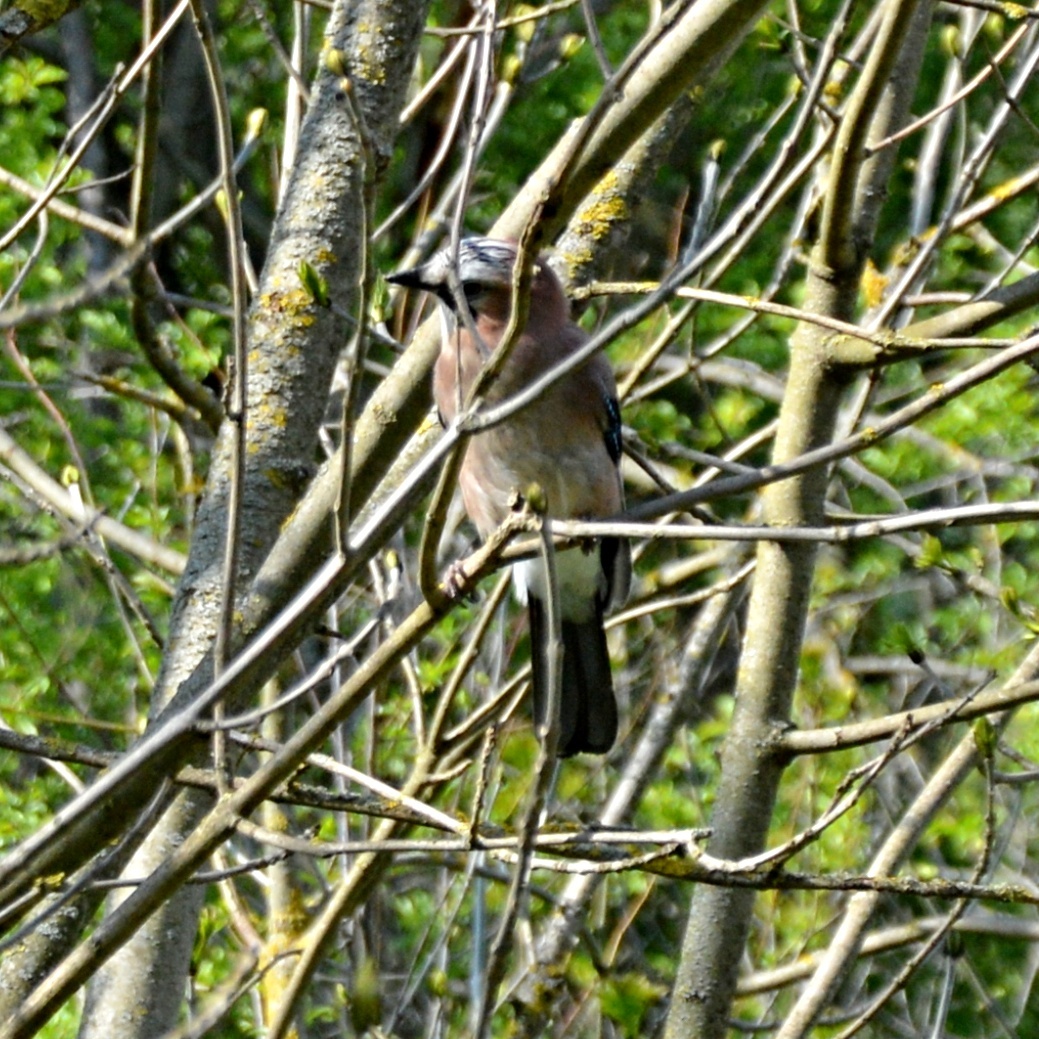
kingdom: Animalia
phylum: Chordata
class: Aves
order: Passeriformes
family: Corvidae
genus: Garrulus
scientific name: Garrulus glandarius
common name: Eurasian jay
